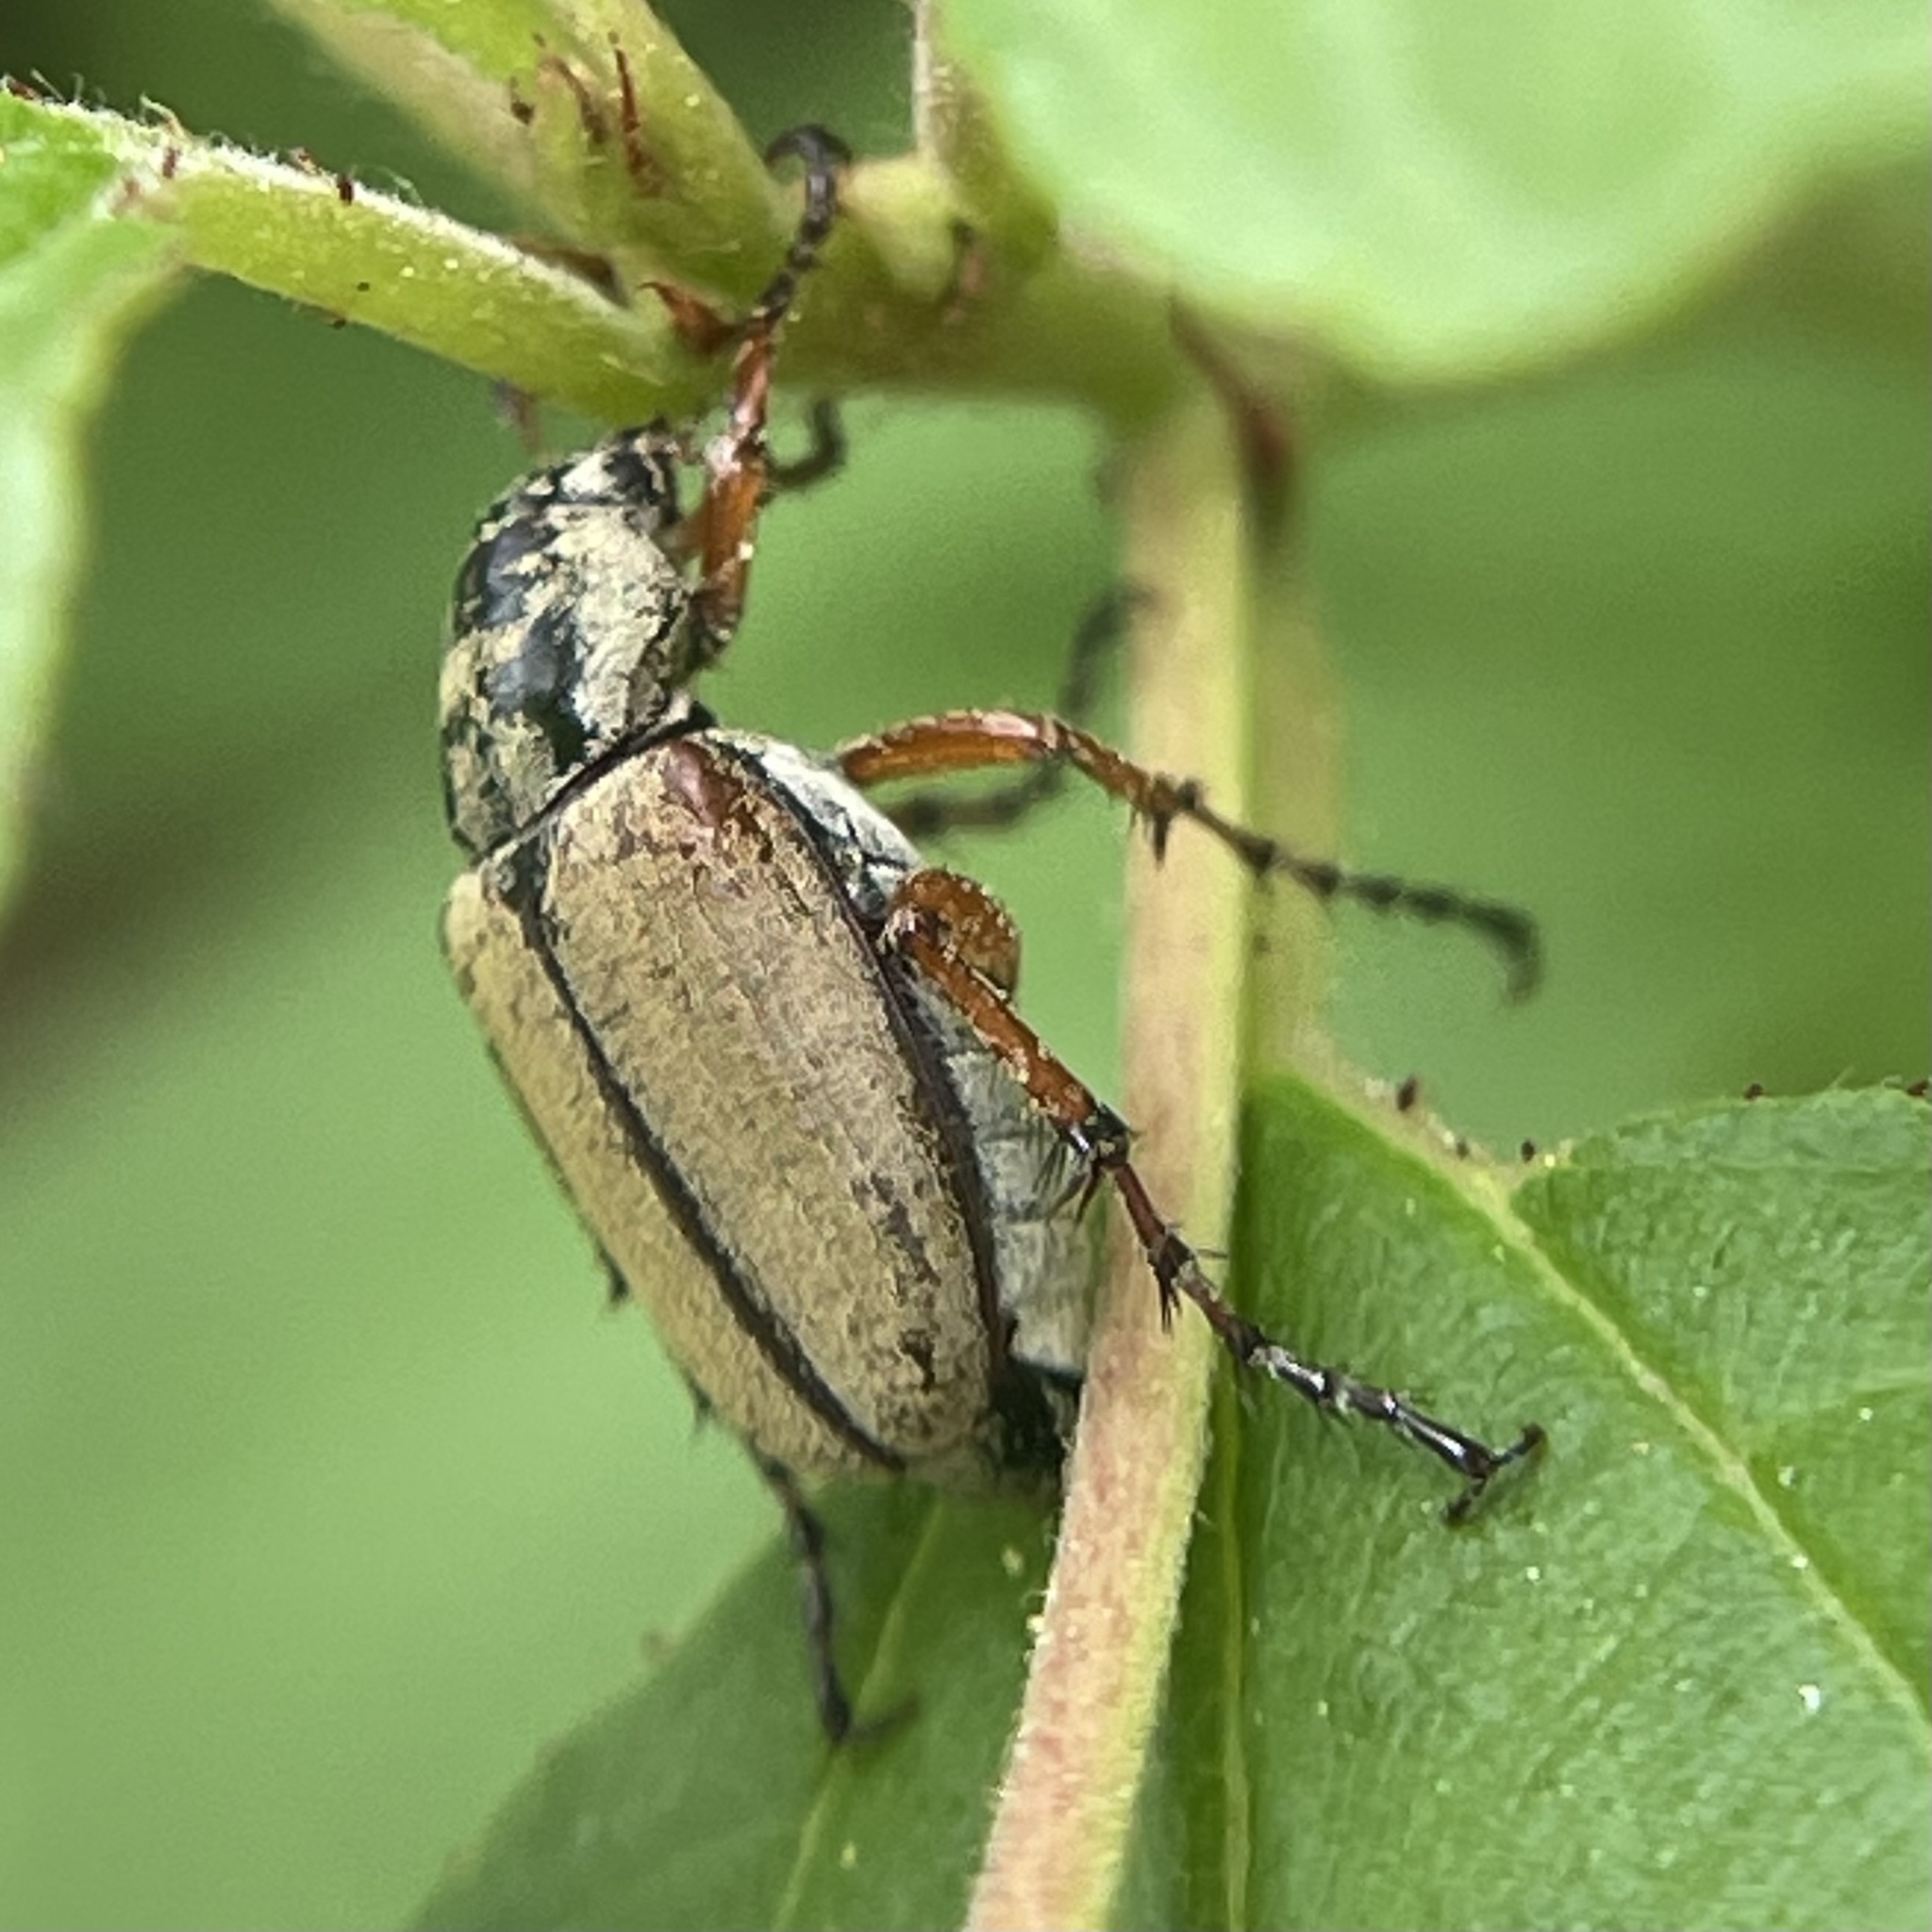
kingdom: Animalia
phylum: Arthropoda
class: Insecta
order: Coleoptera
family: Scarabaeidae
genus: Macrodactylus
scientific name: Macrodactylus subspinosus
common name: American rose chafer
